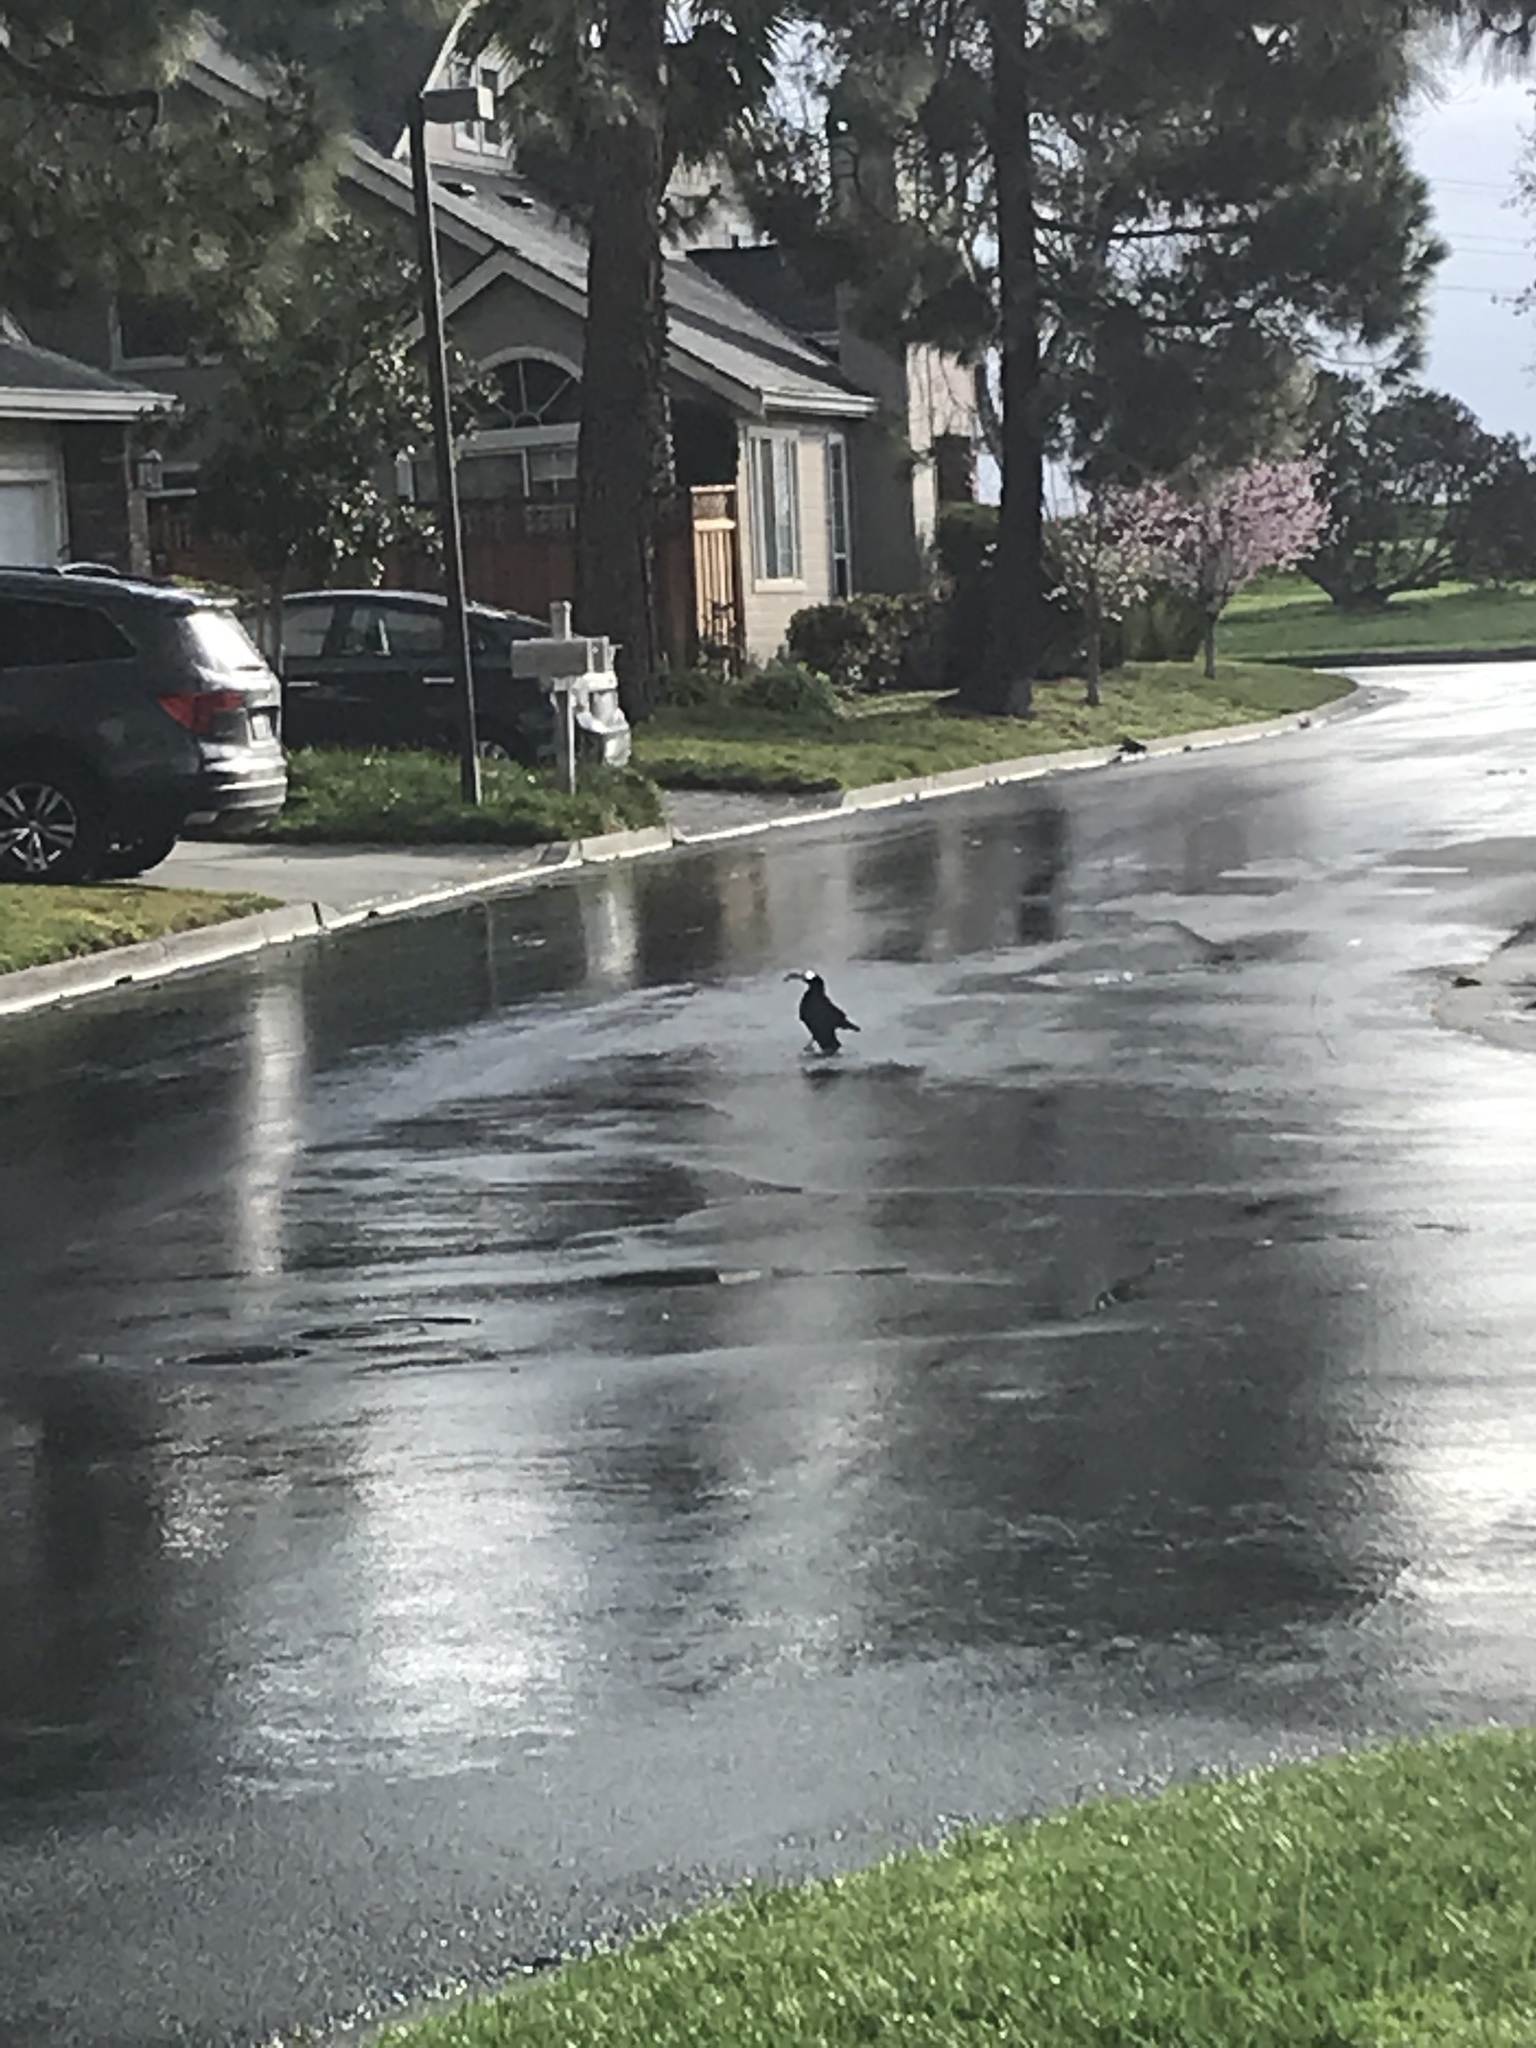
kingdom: Animalia
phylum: Chordata
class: Aves
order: Passeriformes
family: Corvidae
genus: Corvus
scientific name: Corvus brachyrhynchos
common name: American crow
